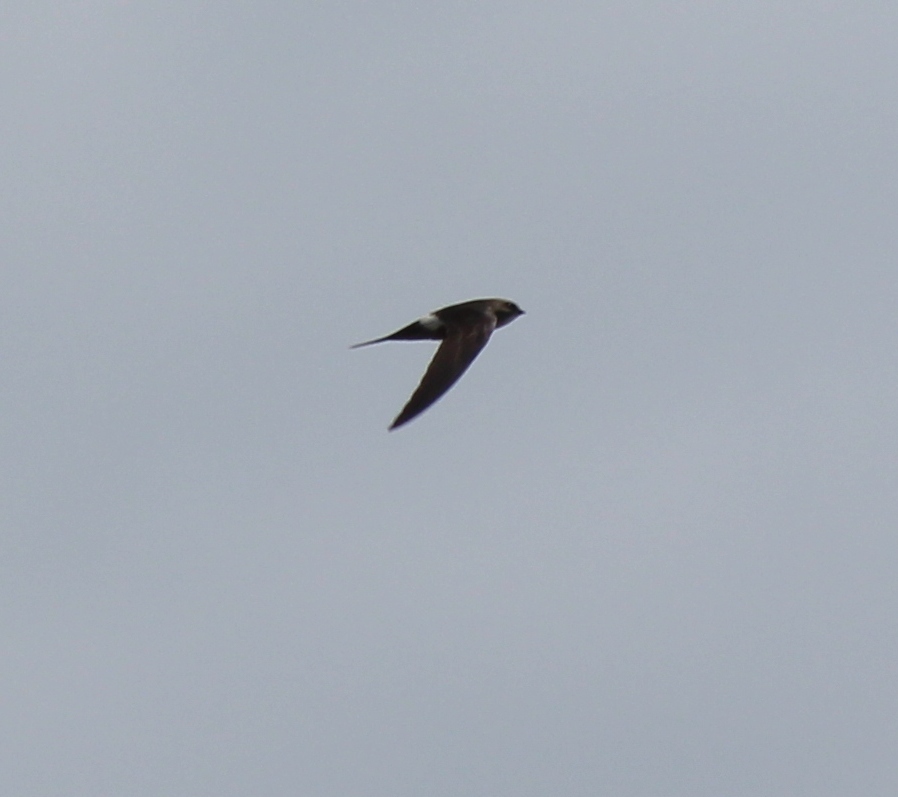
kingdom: Animalia
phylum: Chordata
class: Aves
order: Apodiformes
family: Apodidae
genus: Apus
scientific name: Apus pacificus
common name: Pacific swift
